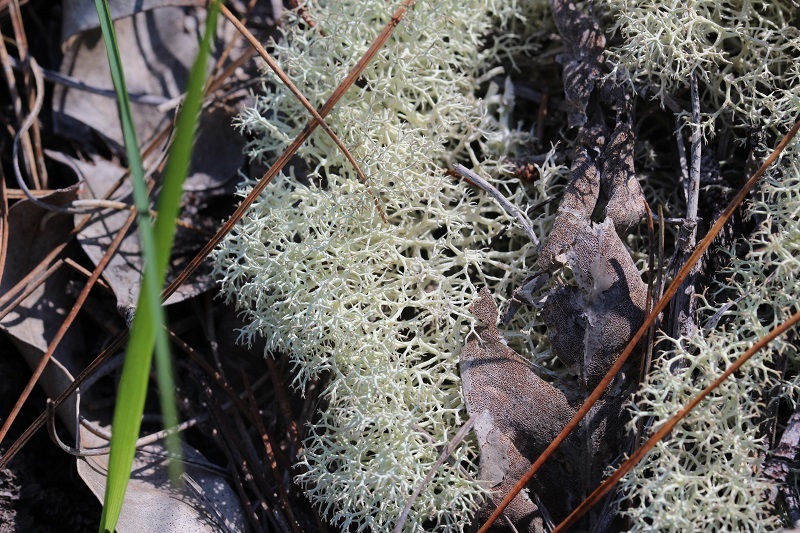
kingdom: Fungi
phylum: Ascomycota
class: Lecanoromycetes
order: Lecanorales
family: Cladoniaceae
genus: Cladonia
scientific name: Cladonia confusa
